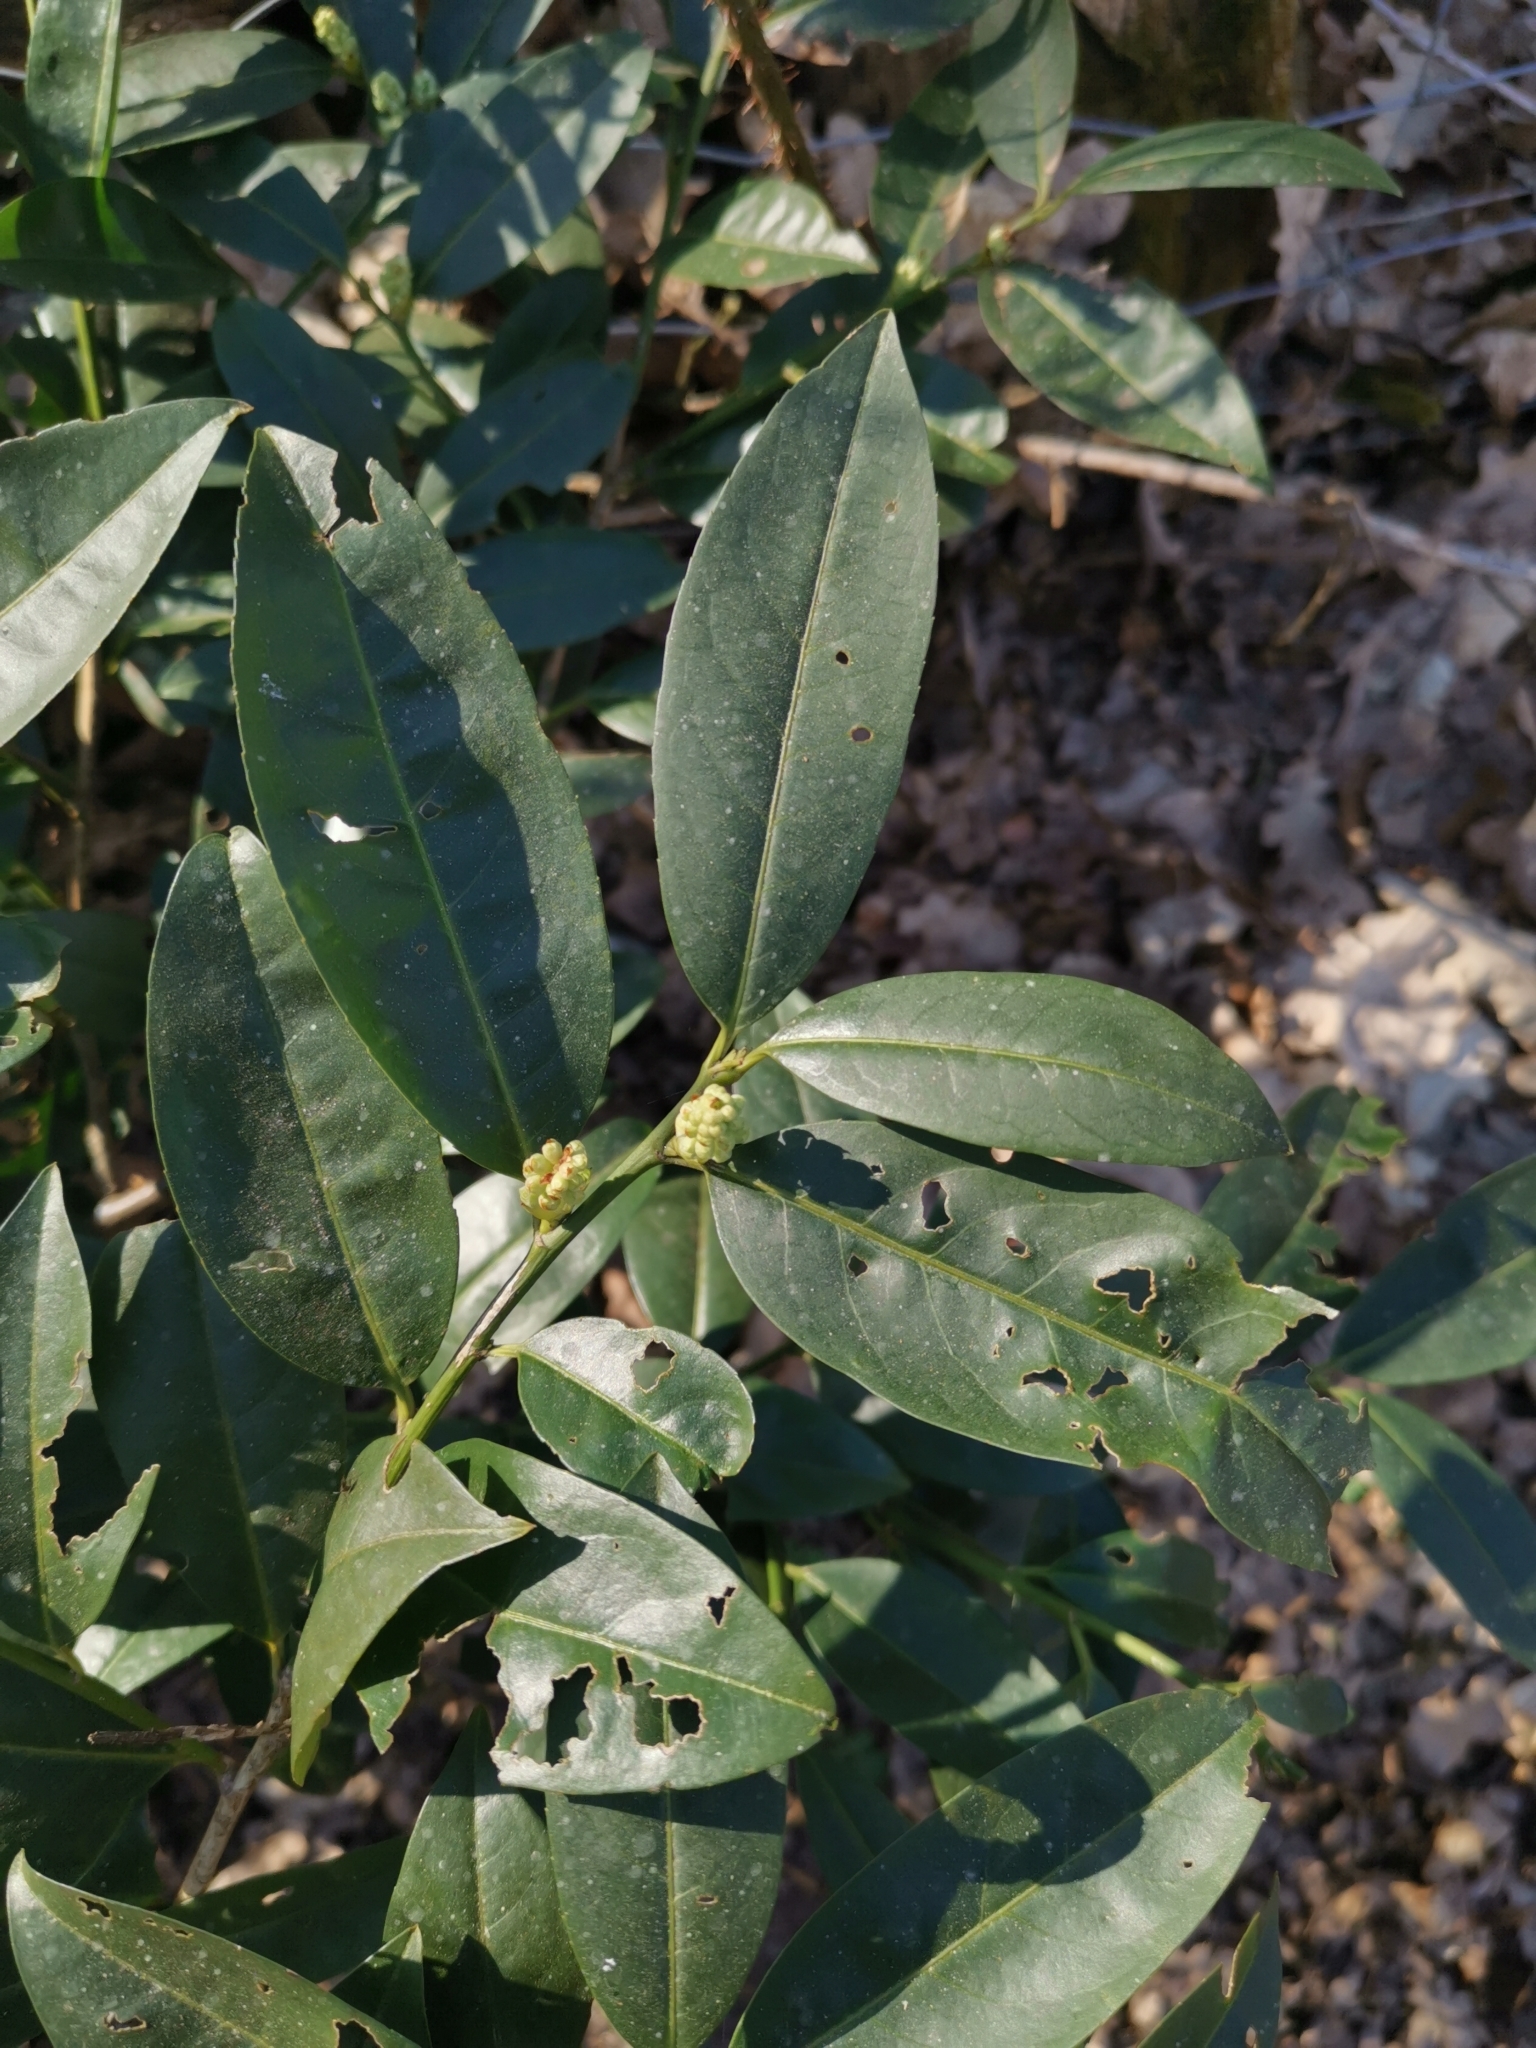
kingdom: Plantae
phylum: Tracheophyta
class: Magnoliopsida
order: Rosales
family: Rosaceae
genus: Prunus
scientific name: Prunus laurocerasus
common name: Cherry laurel
